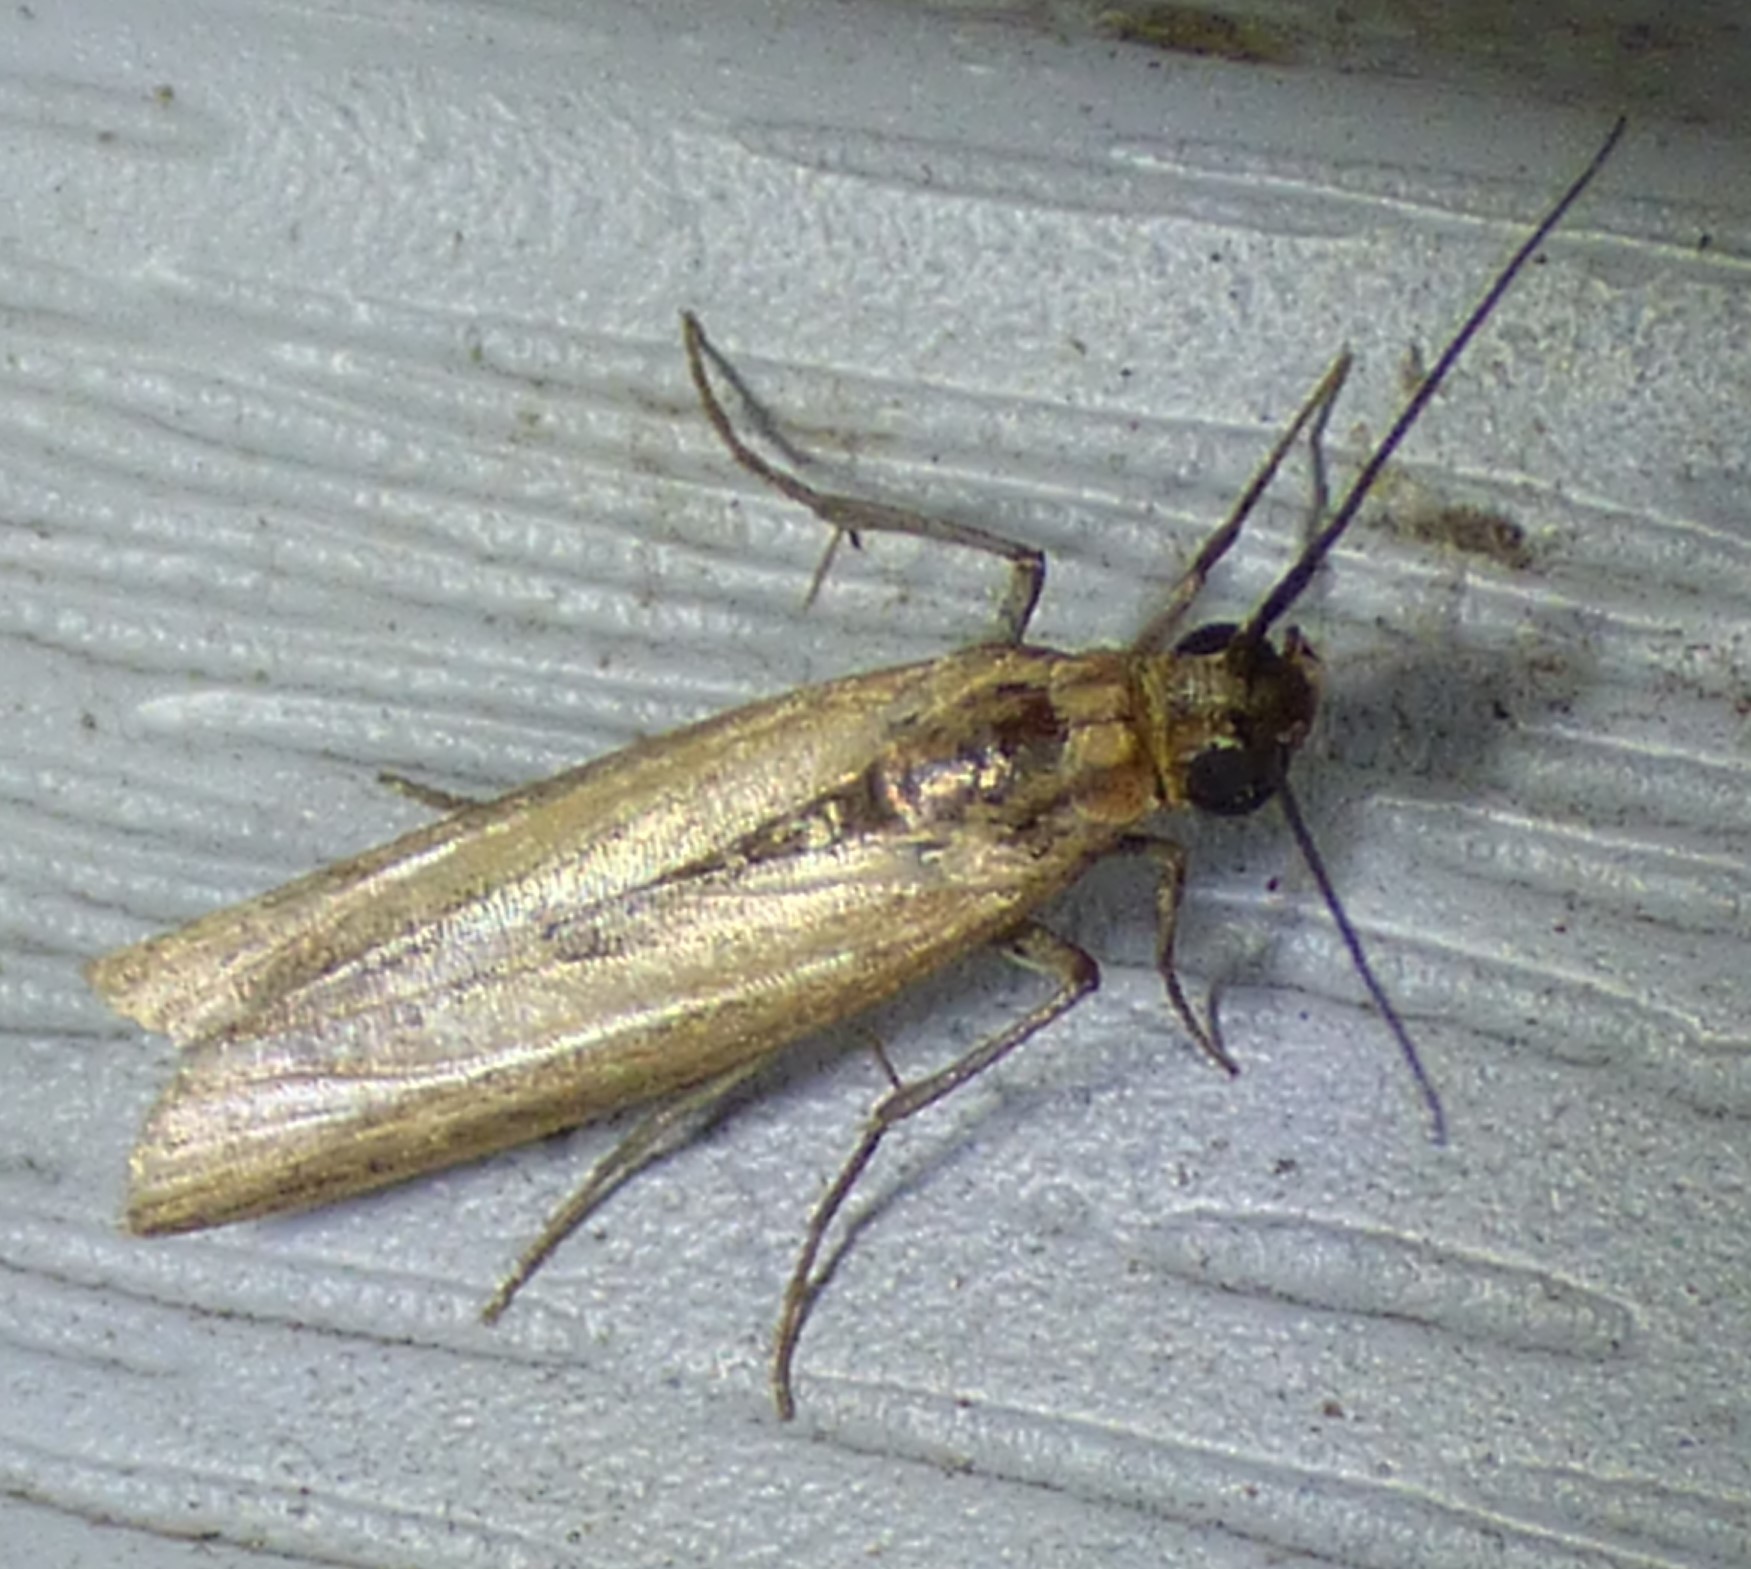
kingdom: Animalia
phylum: Arthropoda
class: Insecta
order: Lepidoptera
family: Pyralidae
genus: Homoeosoma
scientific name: Homoeosoma electella
